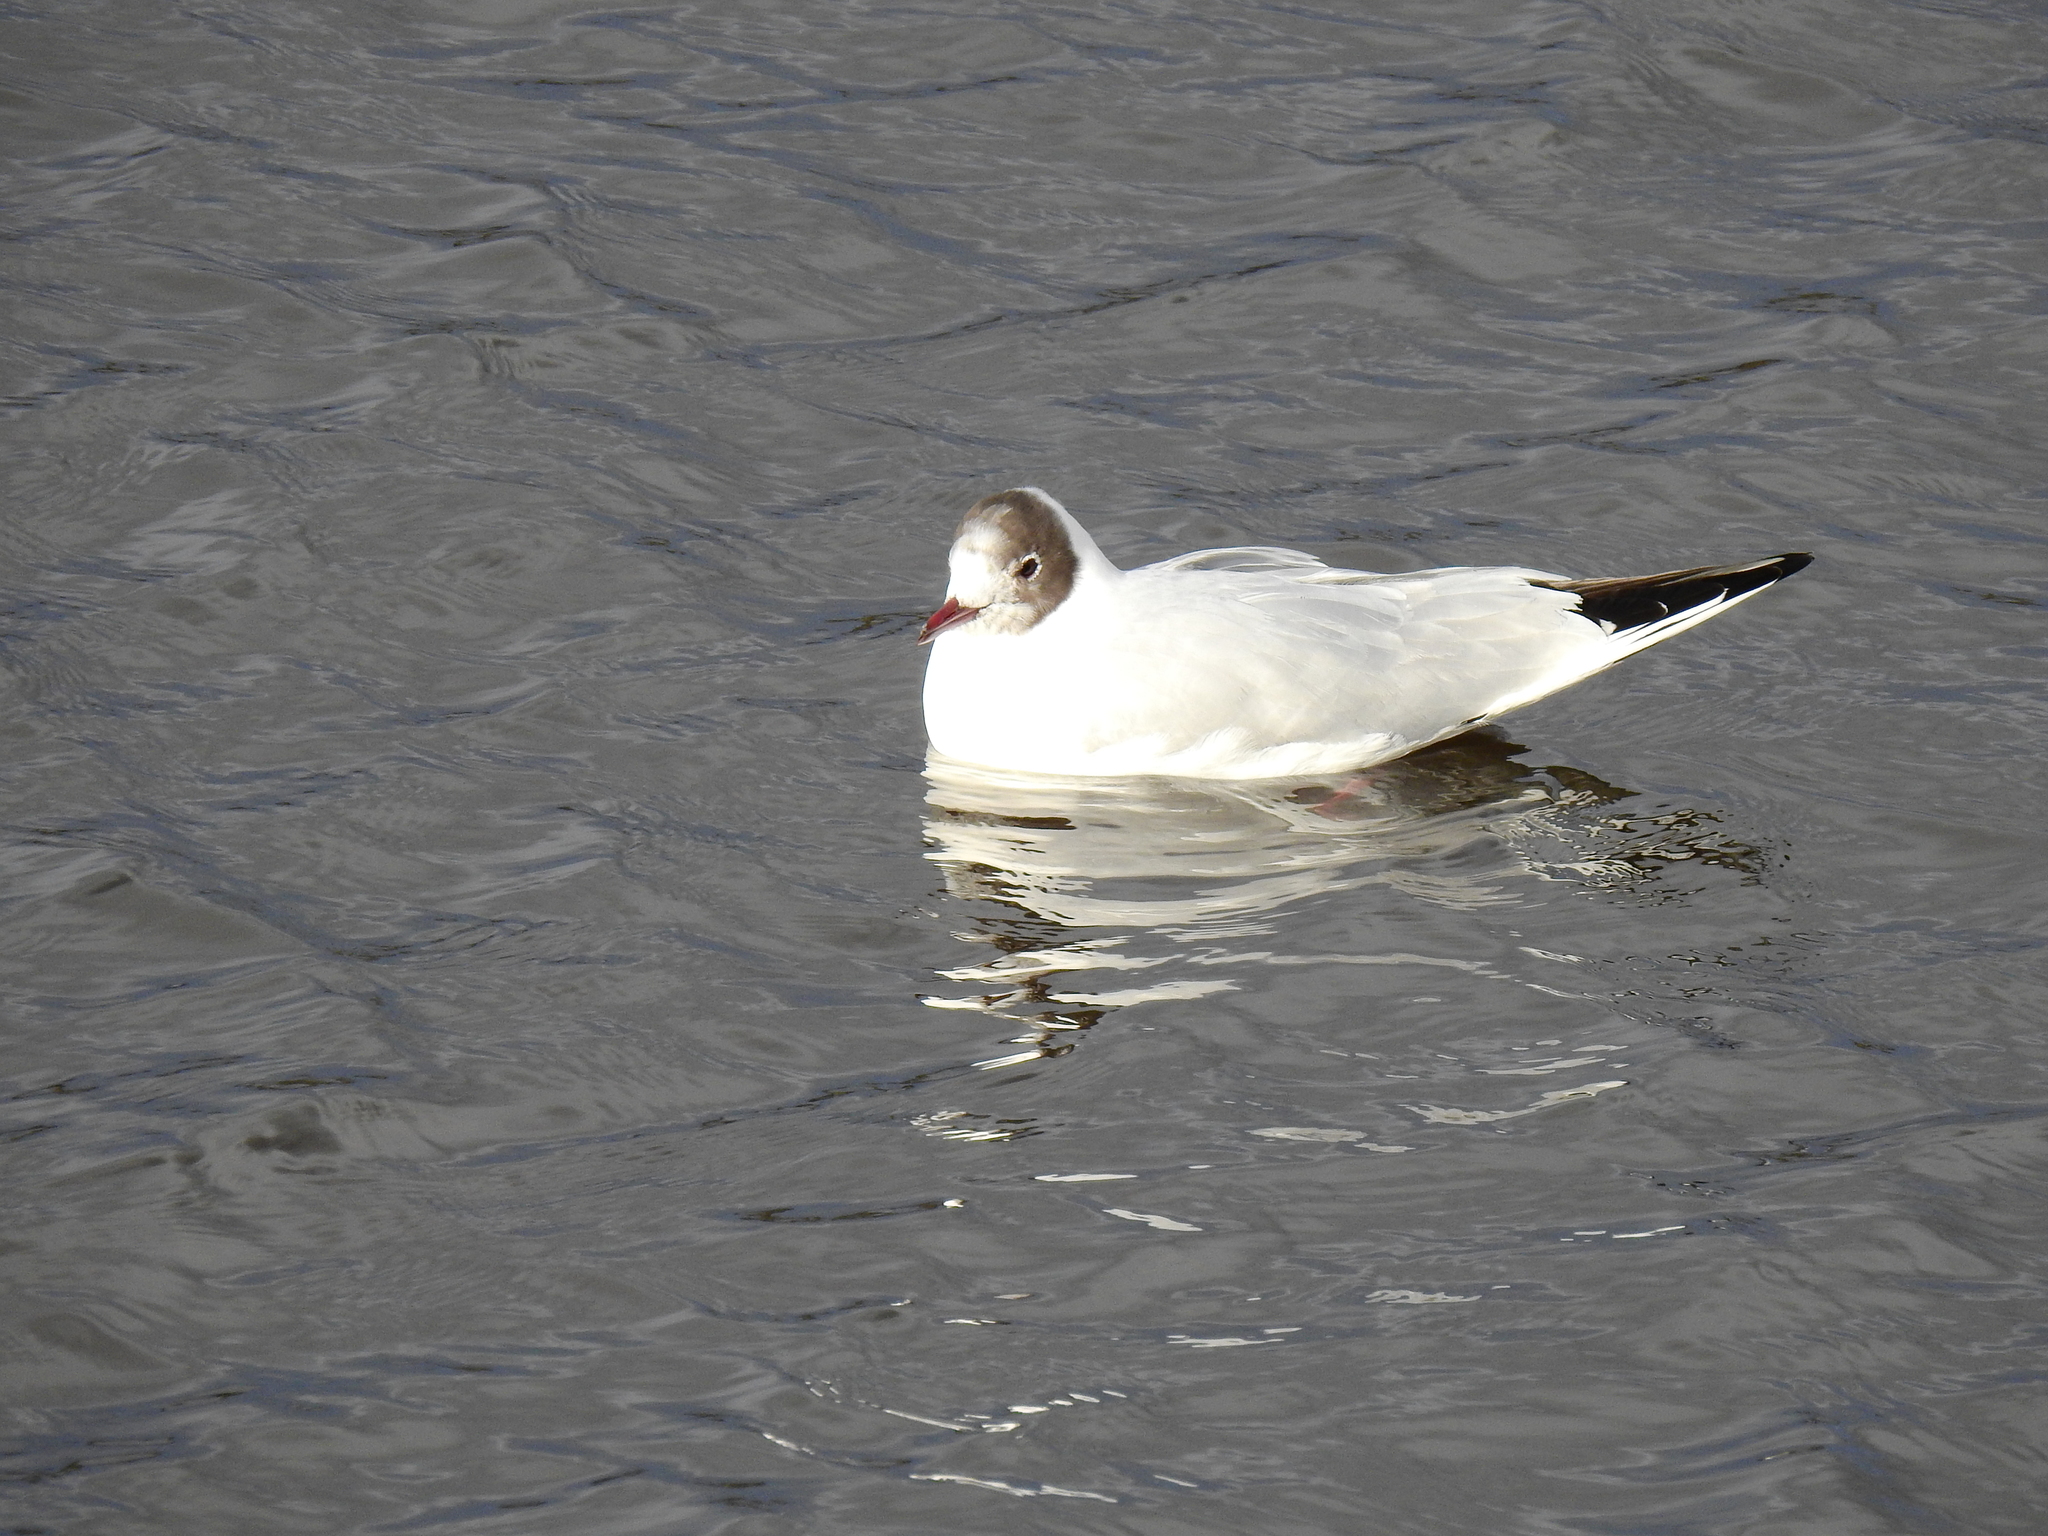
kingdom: Animalia
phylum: Chordata
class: Aves
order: Charadriiformes
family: Laridae
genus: Chroicocephalus
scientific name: Chroicocephalus ridibundus
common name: Black-headed gull
